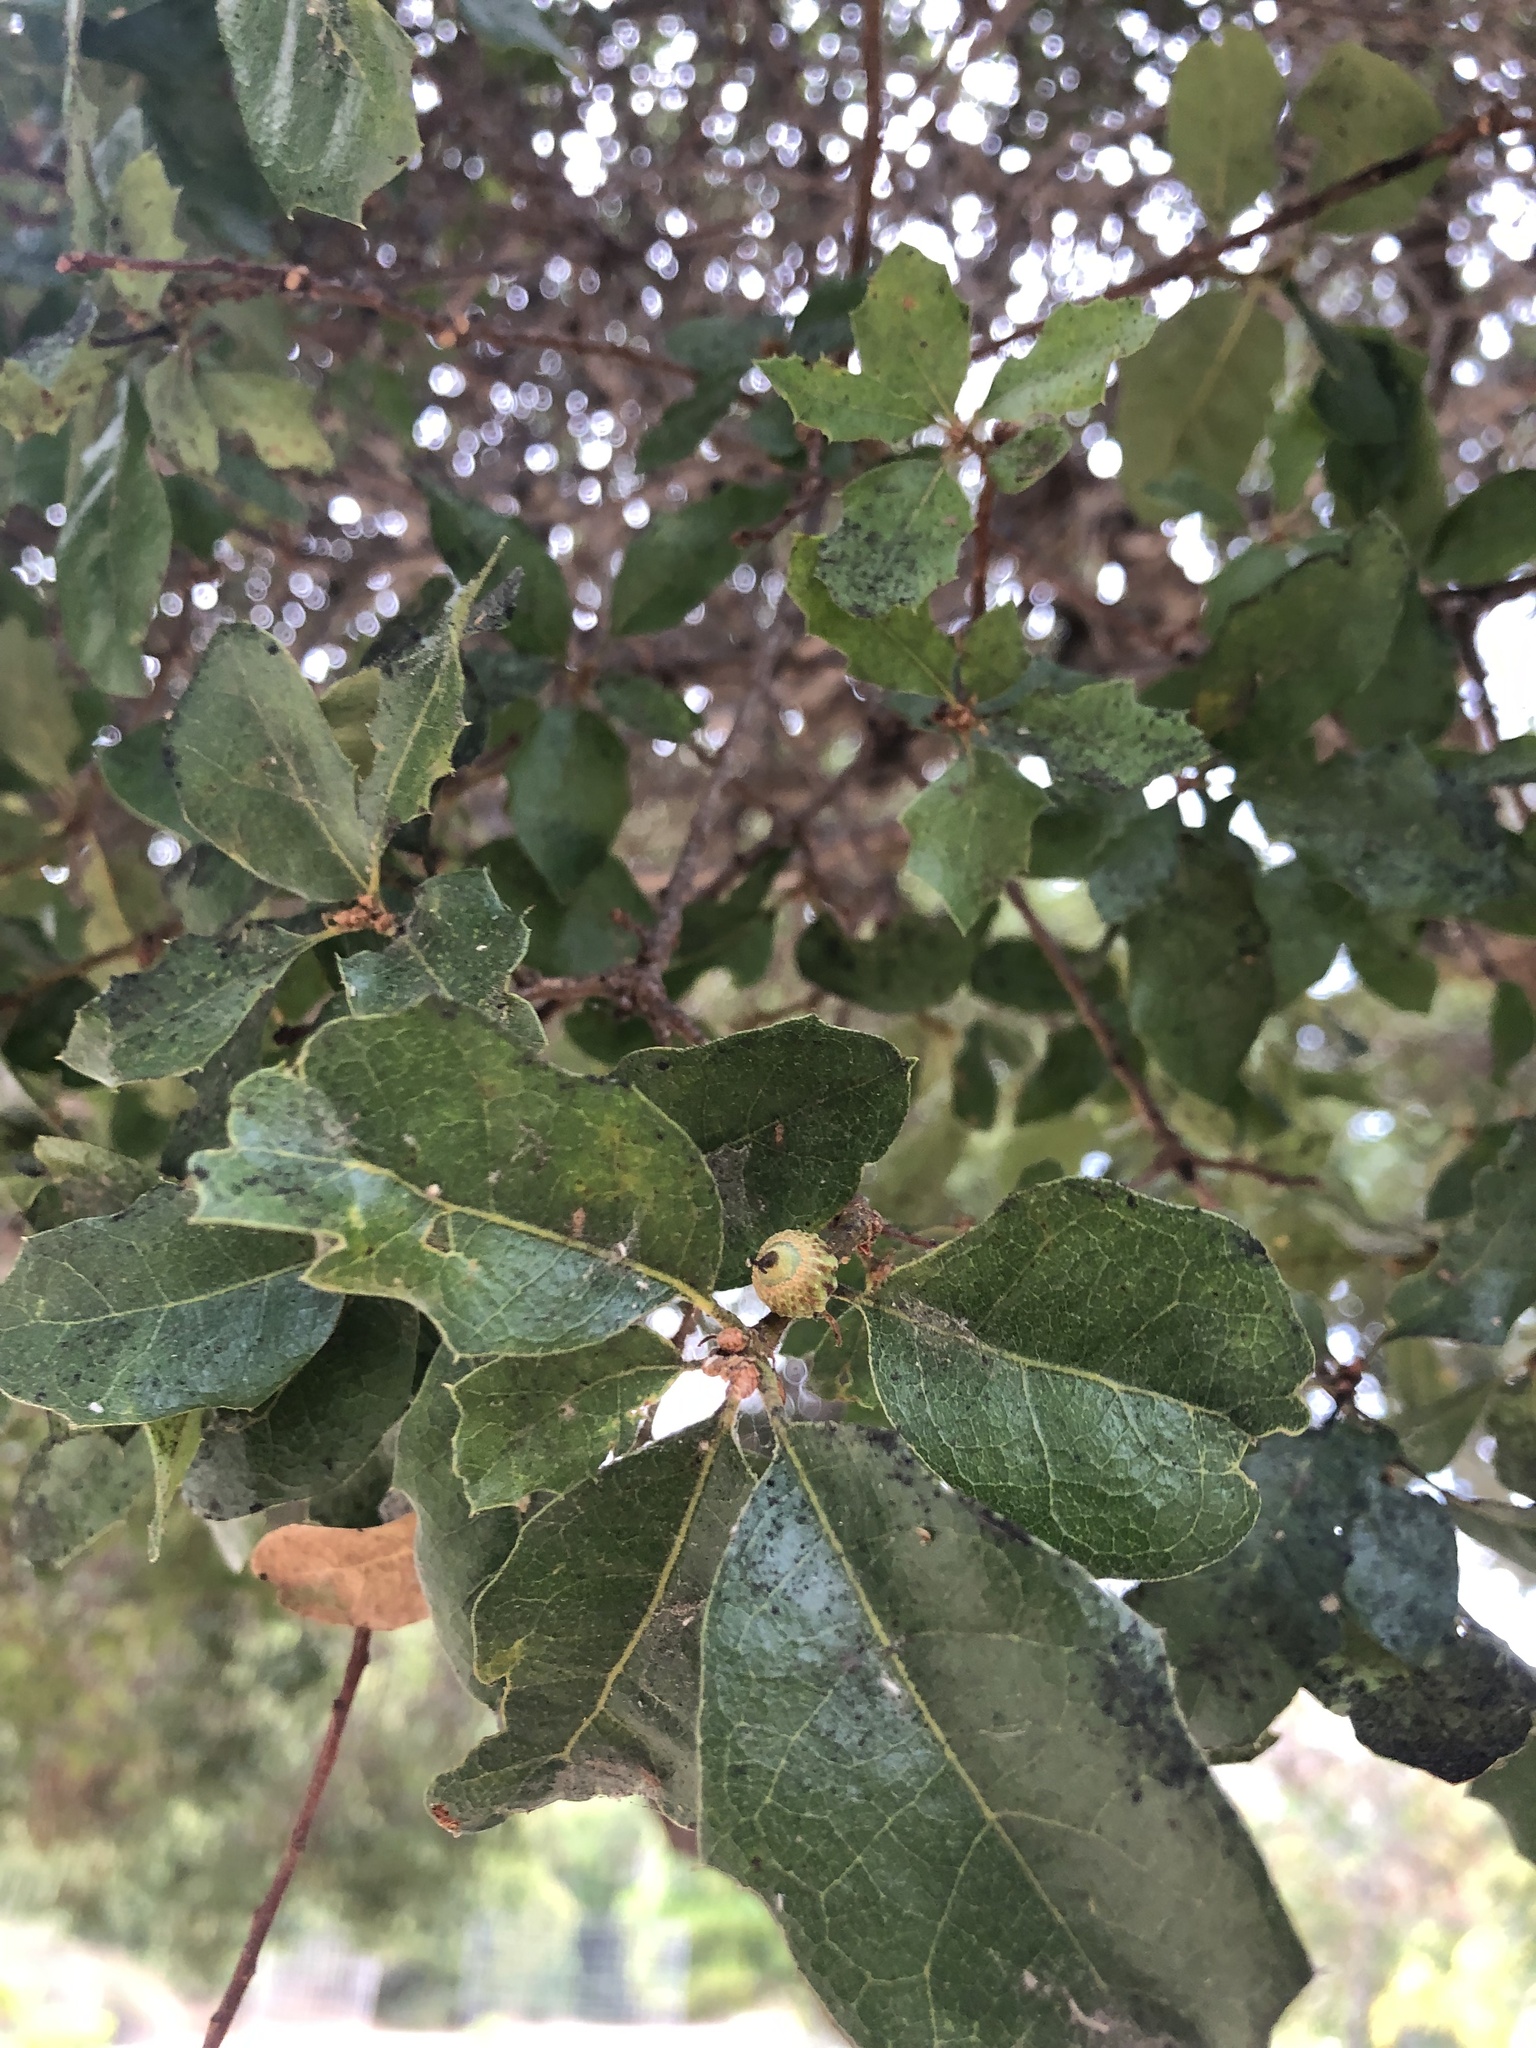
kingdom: Plantae
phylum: Tracheophyta
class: Magnoliopsida
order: Fagales
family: Fagaceae
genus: Quercus
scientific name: Quercus pacifica
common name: Channel island scrub oak
